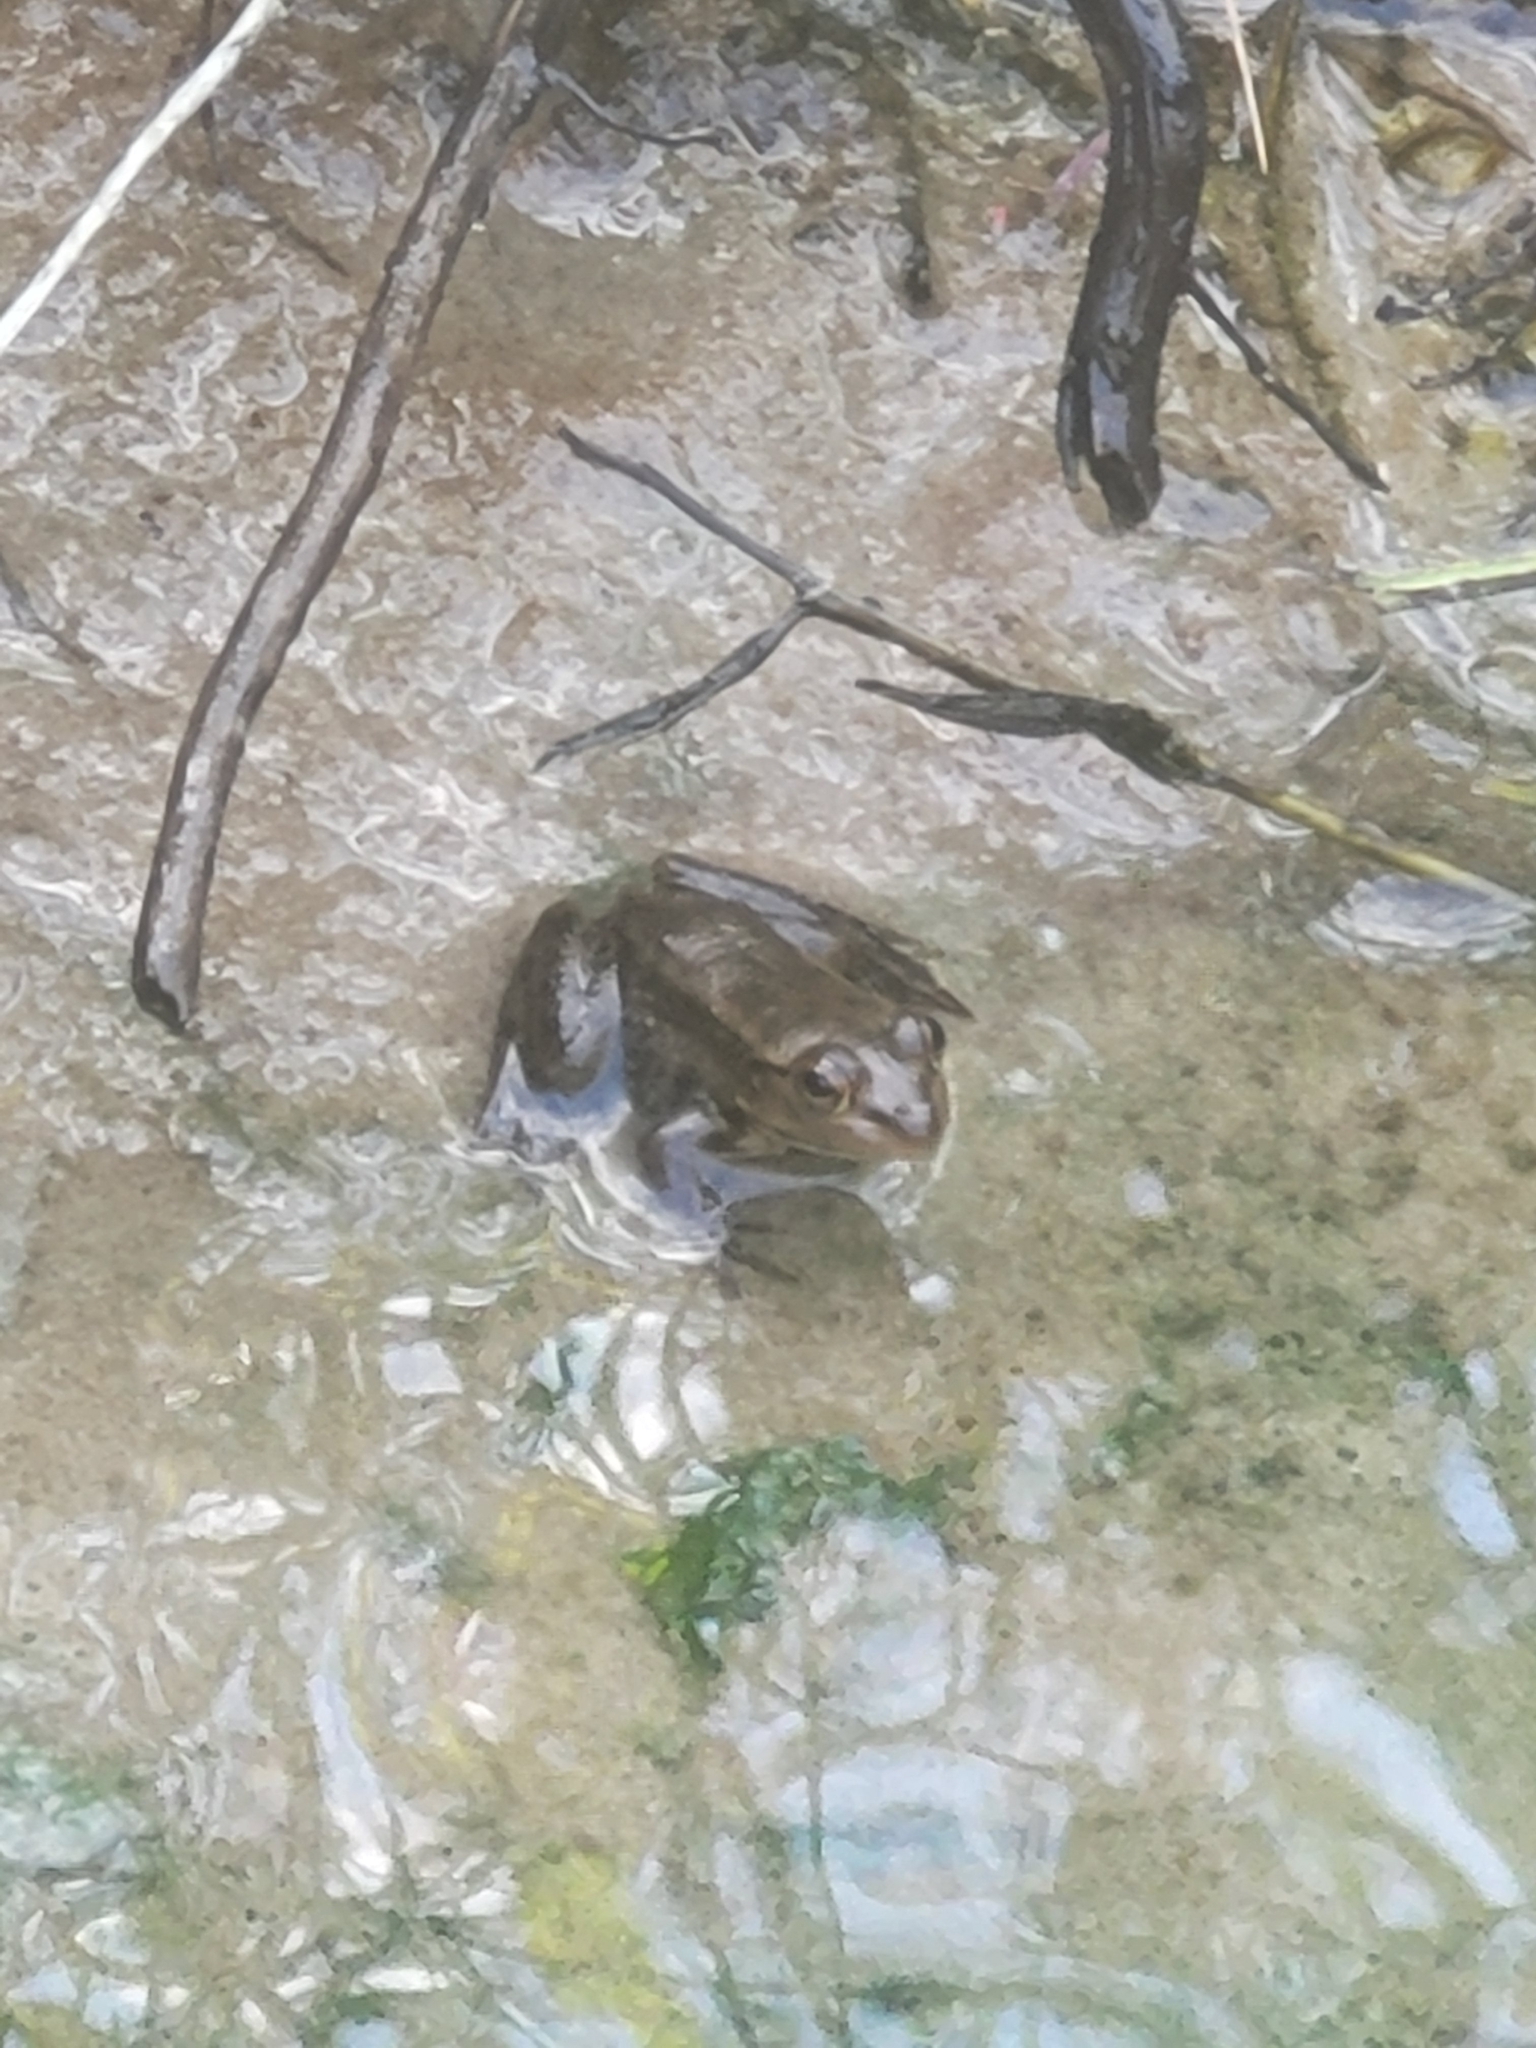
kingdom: Animalia
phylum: Chordata
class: Amphibia
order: Anura
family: Ranidae
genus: Lithobates
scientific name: Lithobates grylio
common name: Pig frog
